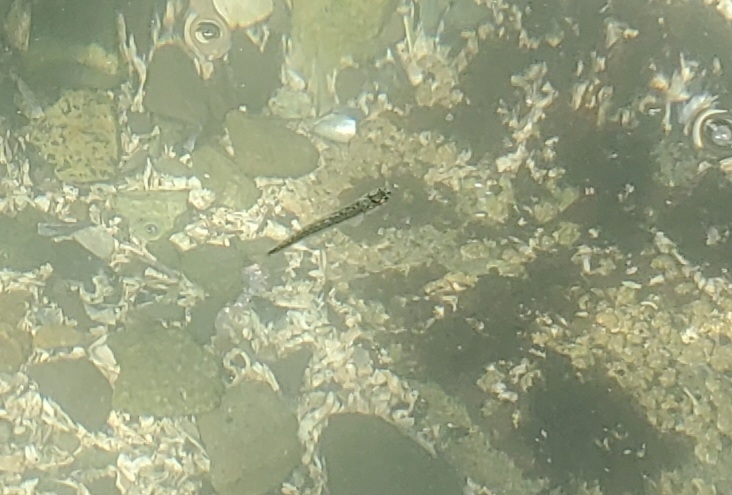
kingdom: Animalia
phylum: Chordata
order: Salmoniformes
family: Salmonidae
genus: Oncorhynchus
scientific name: Oncorhynchus
